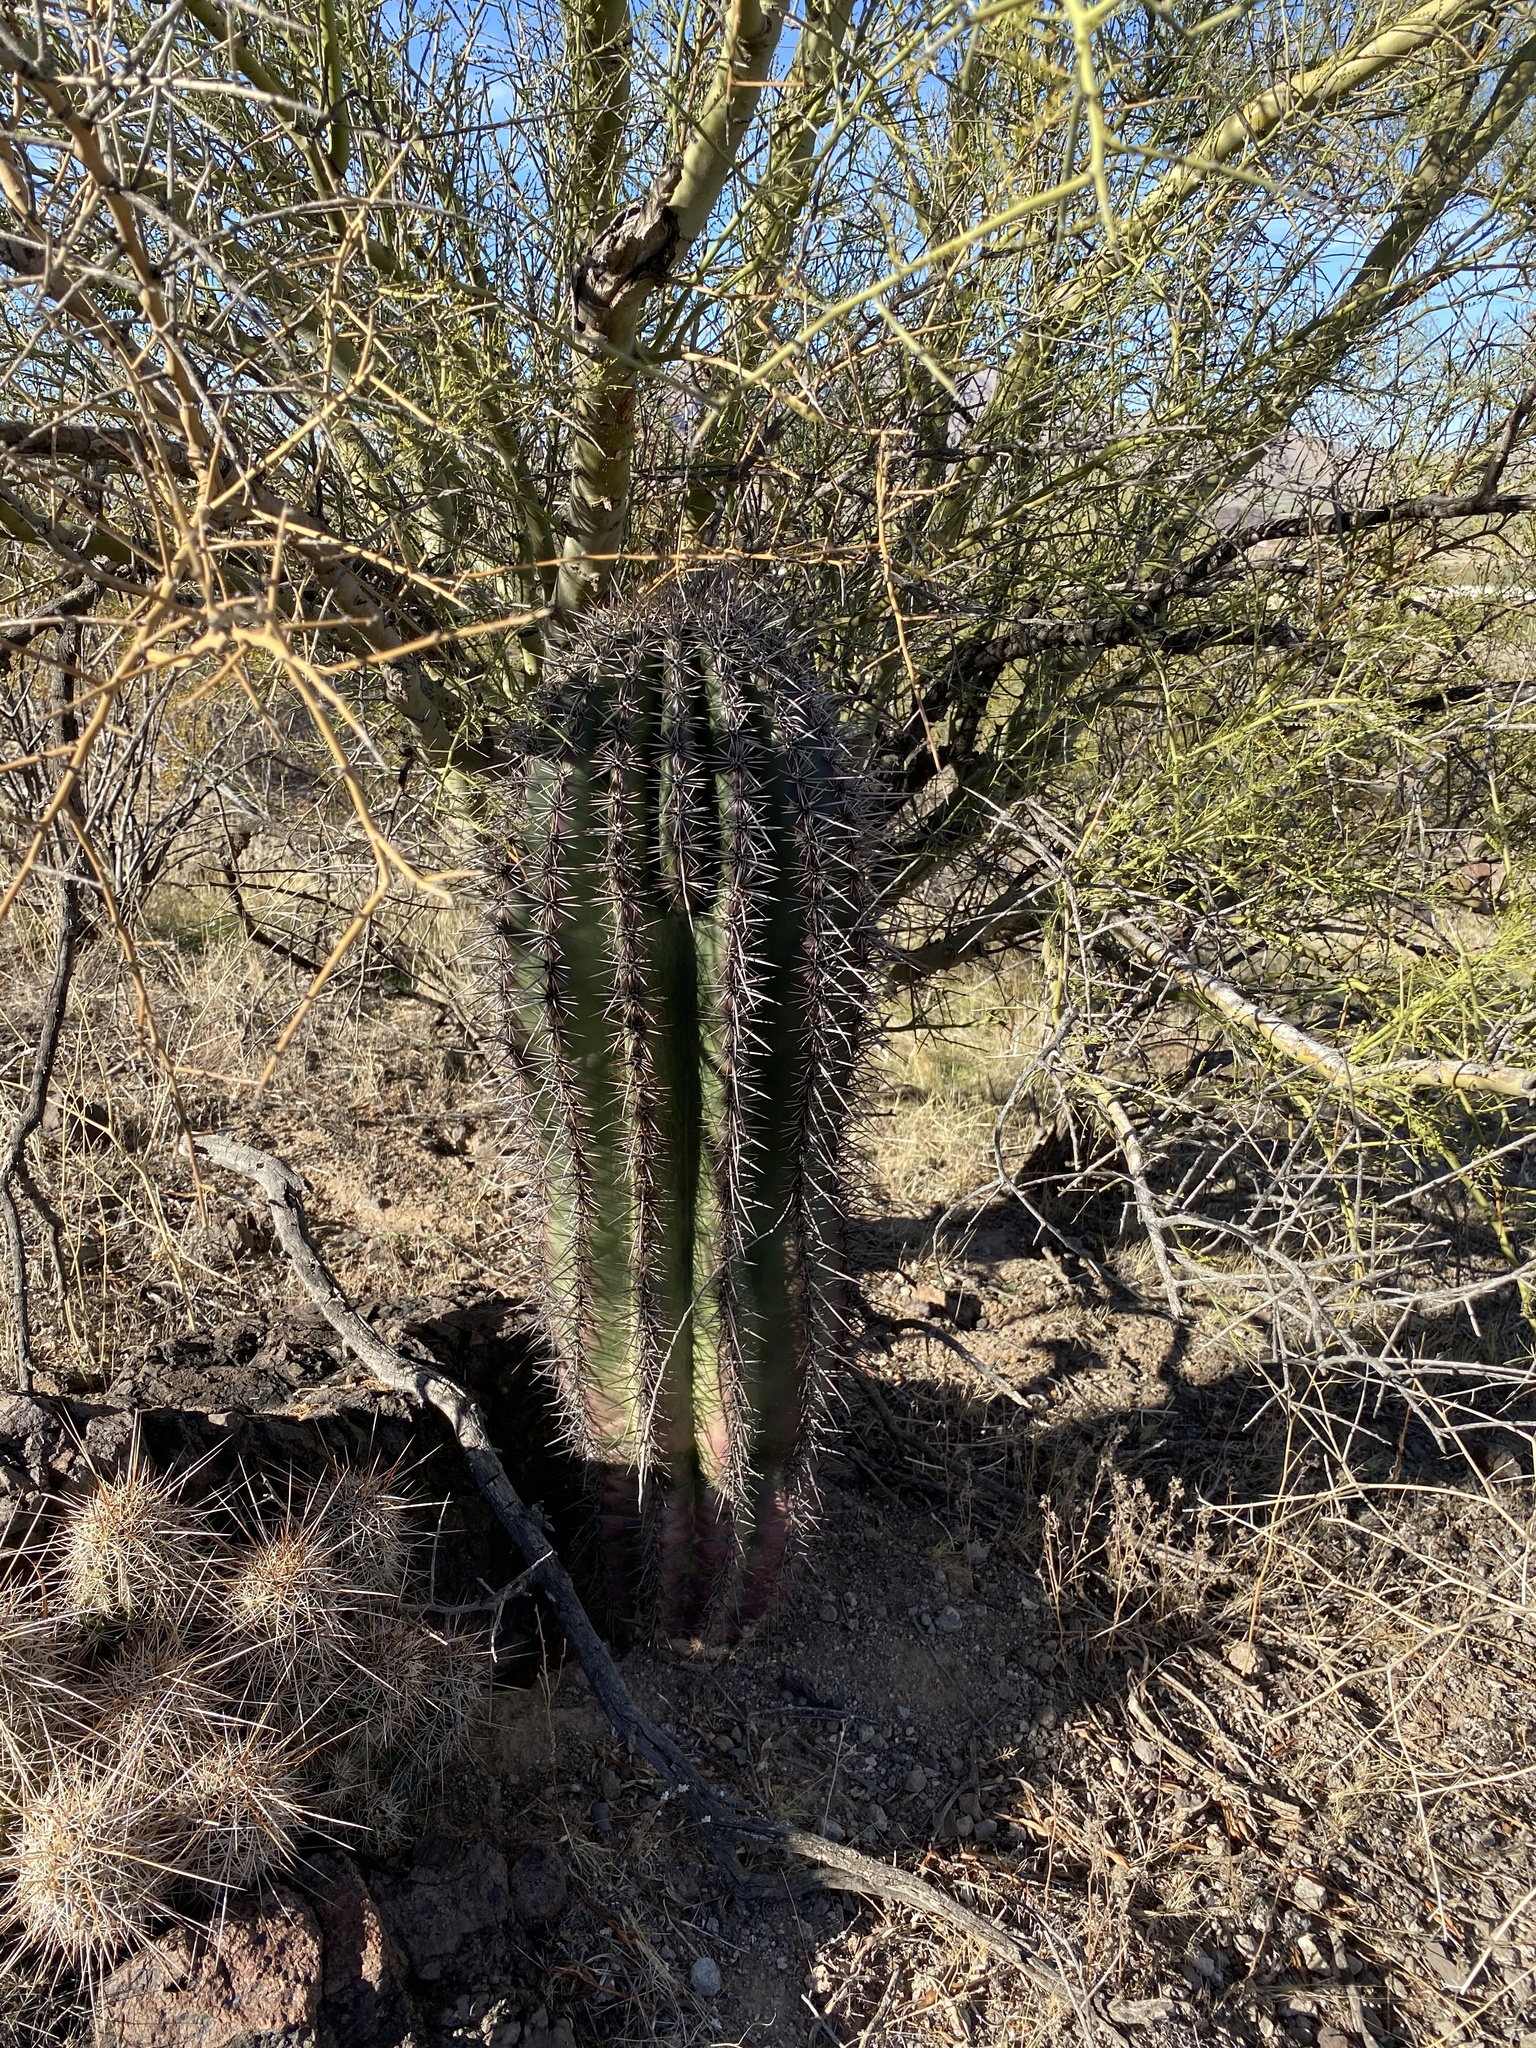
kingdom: Plantae
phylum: Tracheophyta
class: Magnoliopsida
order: Caryophyllales
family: Cactaceae
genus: Carnegiea
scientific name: Carnegiea gigantea
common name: Saguaro
